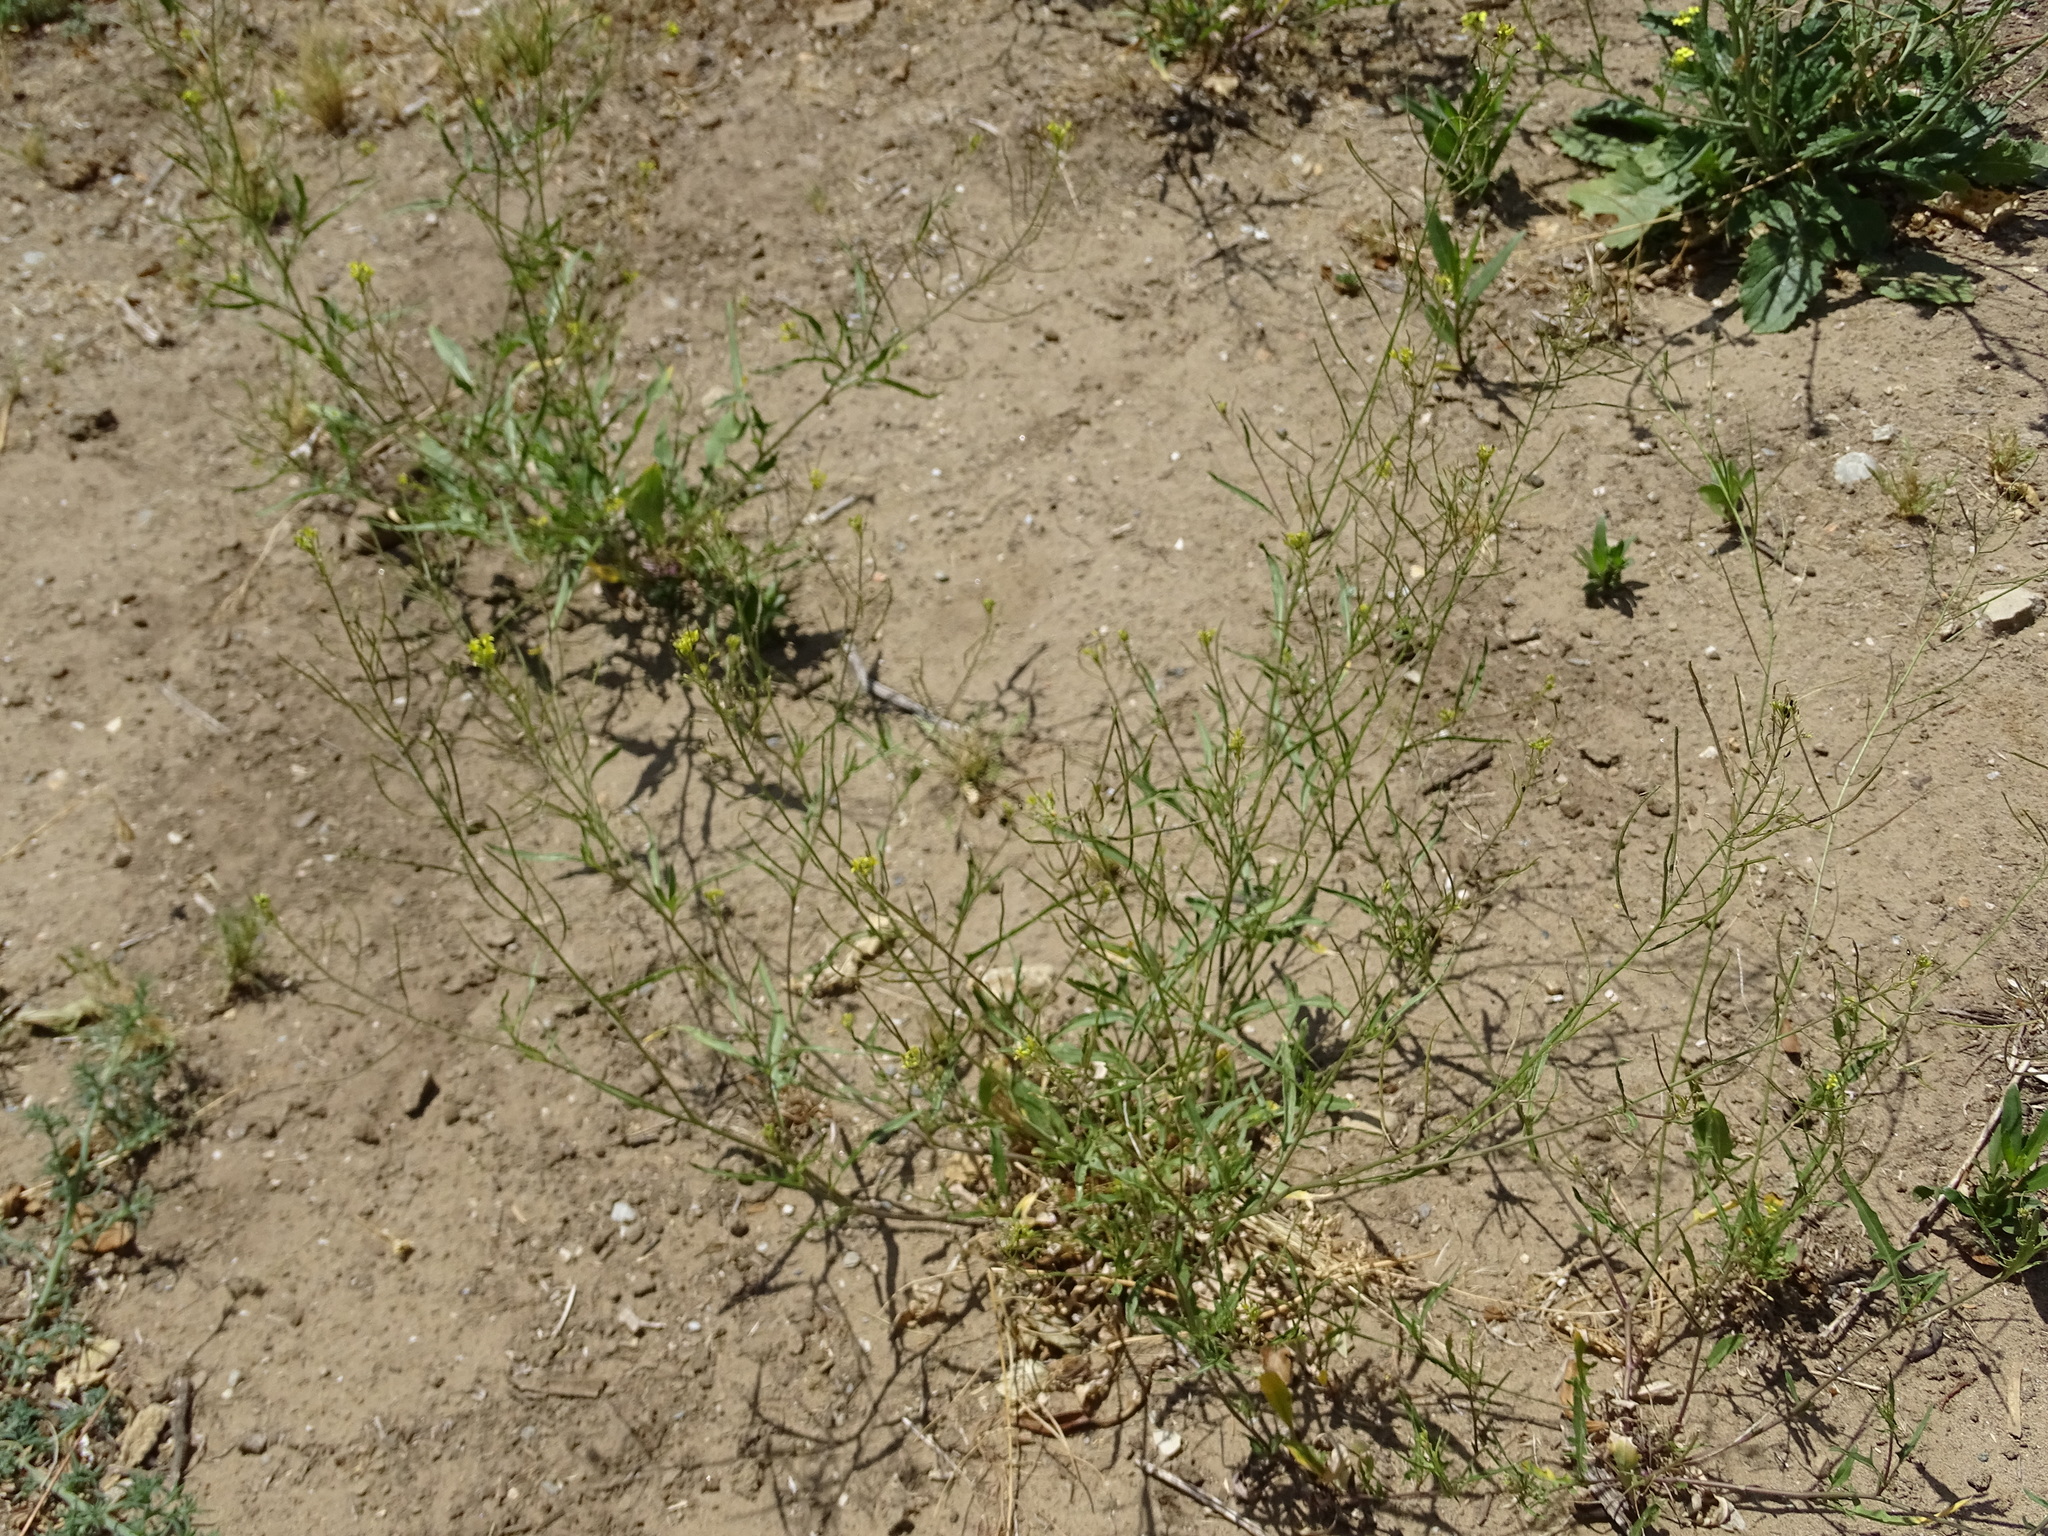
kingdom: Plantae
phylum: Tracheophyta
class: Magnoliopsida
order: Brassicales
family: Brassicaceae
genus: Sisymbrium
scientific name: Sisymbrium irio
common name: London rocket
